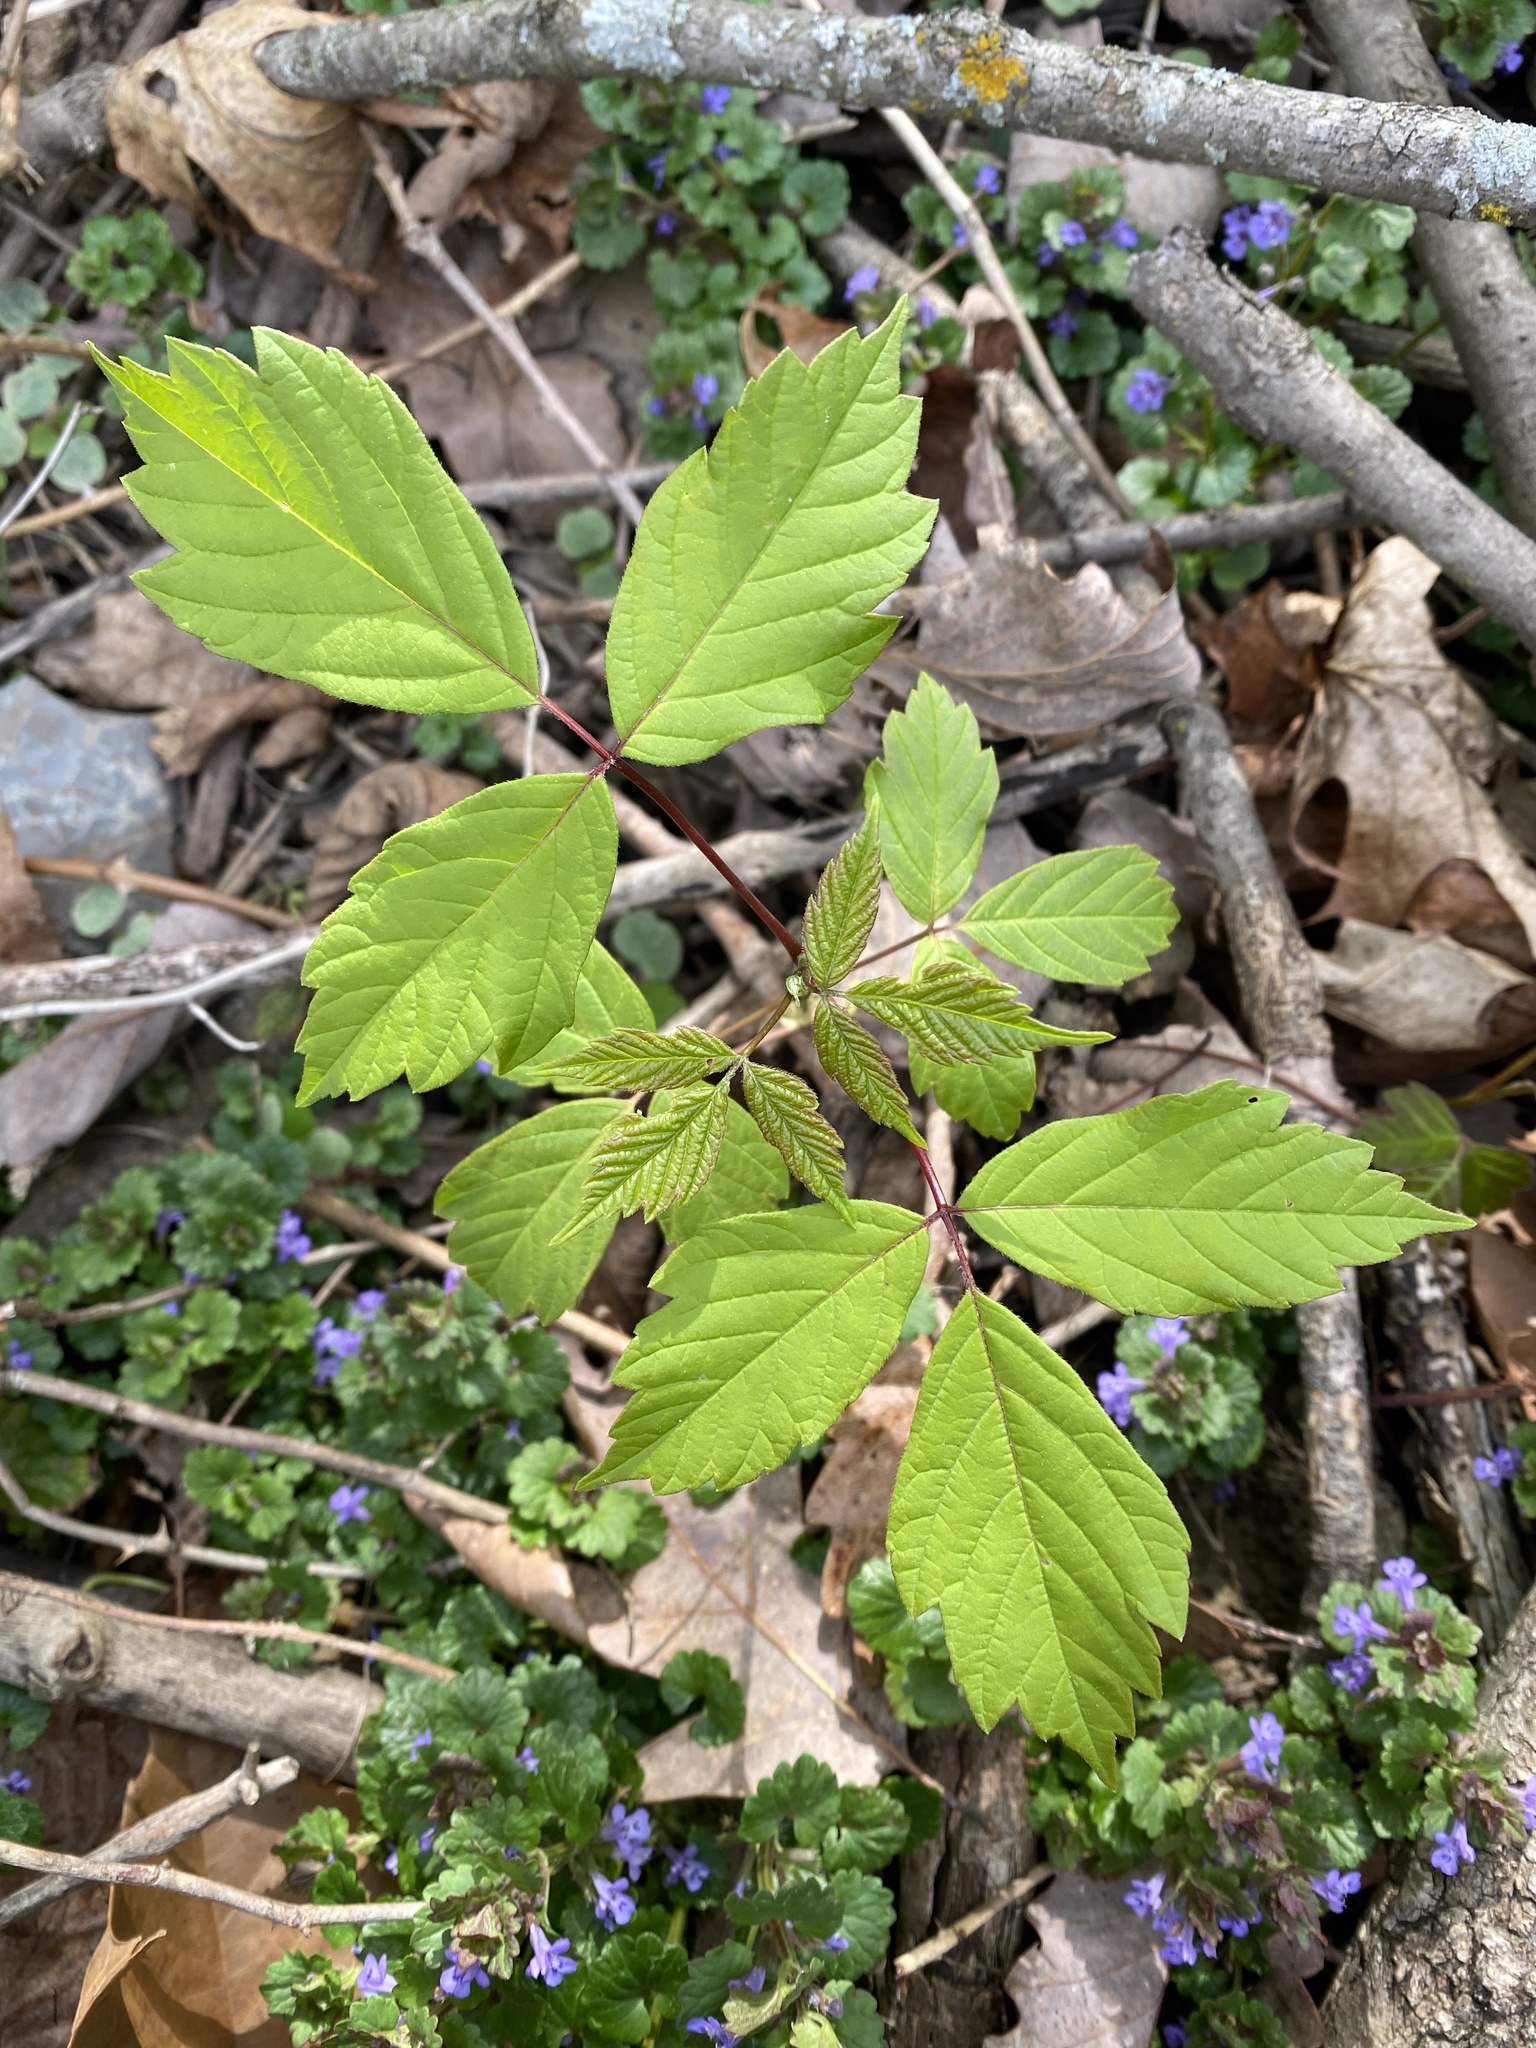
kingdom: Plantae
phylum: Tracheophyta
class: Magnoliopsida
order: Sapindales
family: Sapindaceae
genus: Acer
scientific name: Acer negundo
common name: Ashleaf maple
